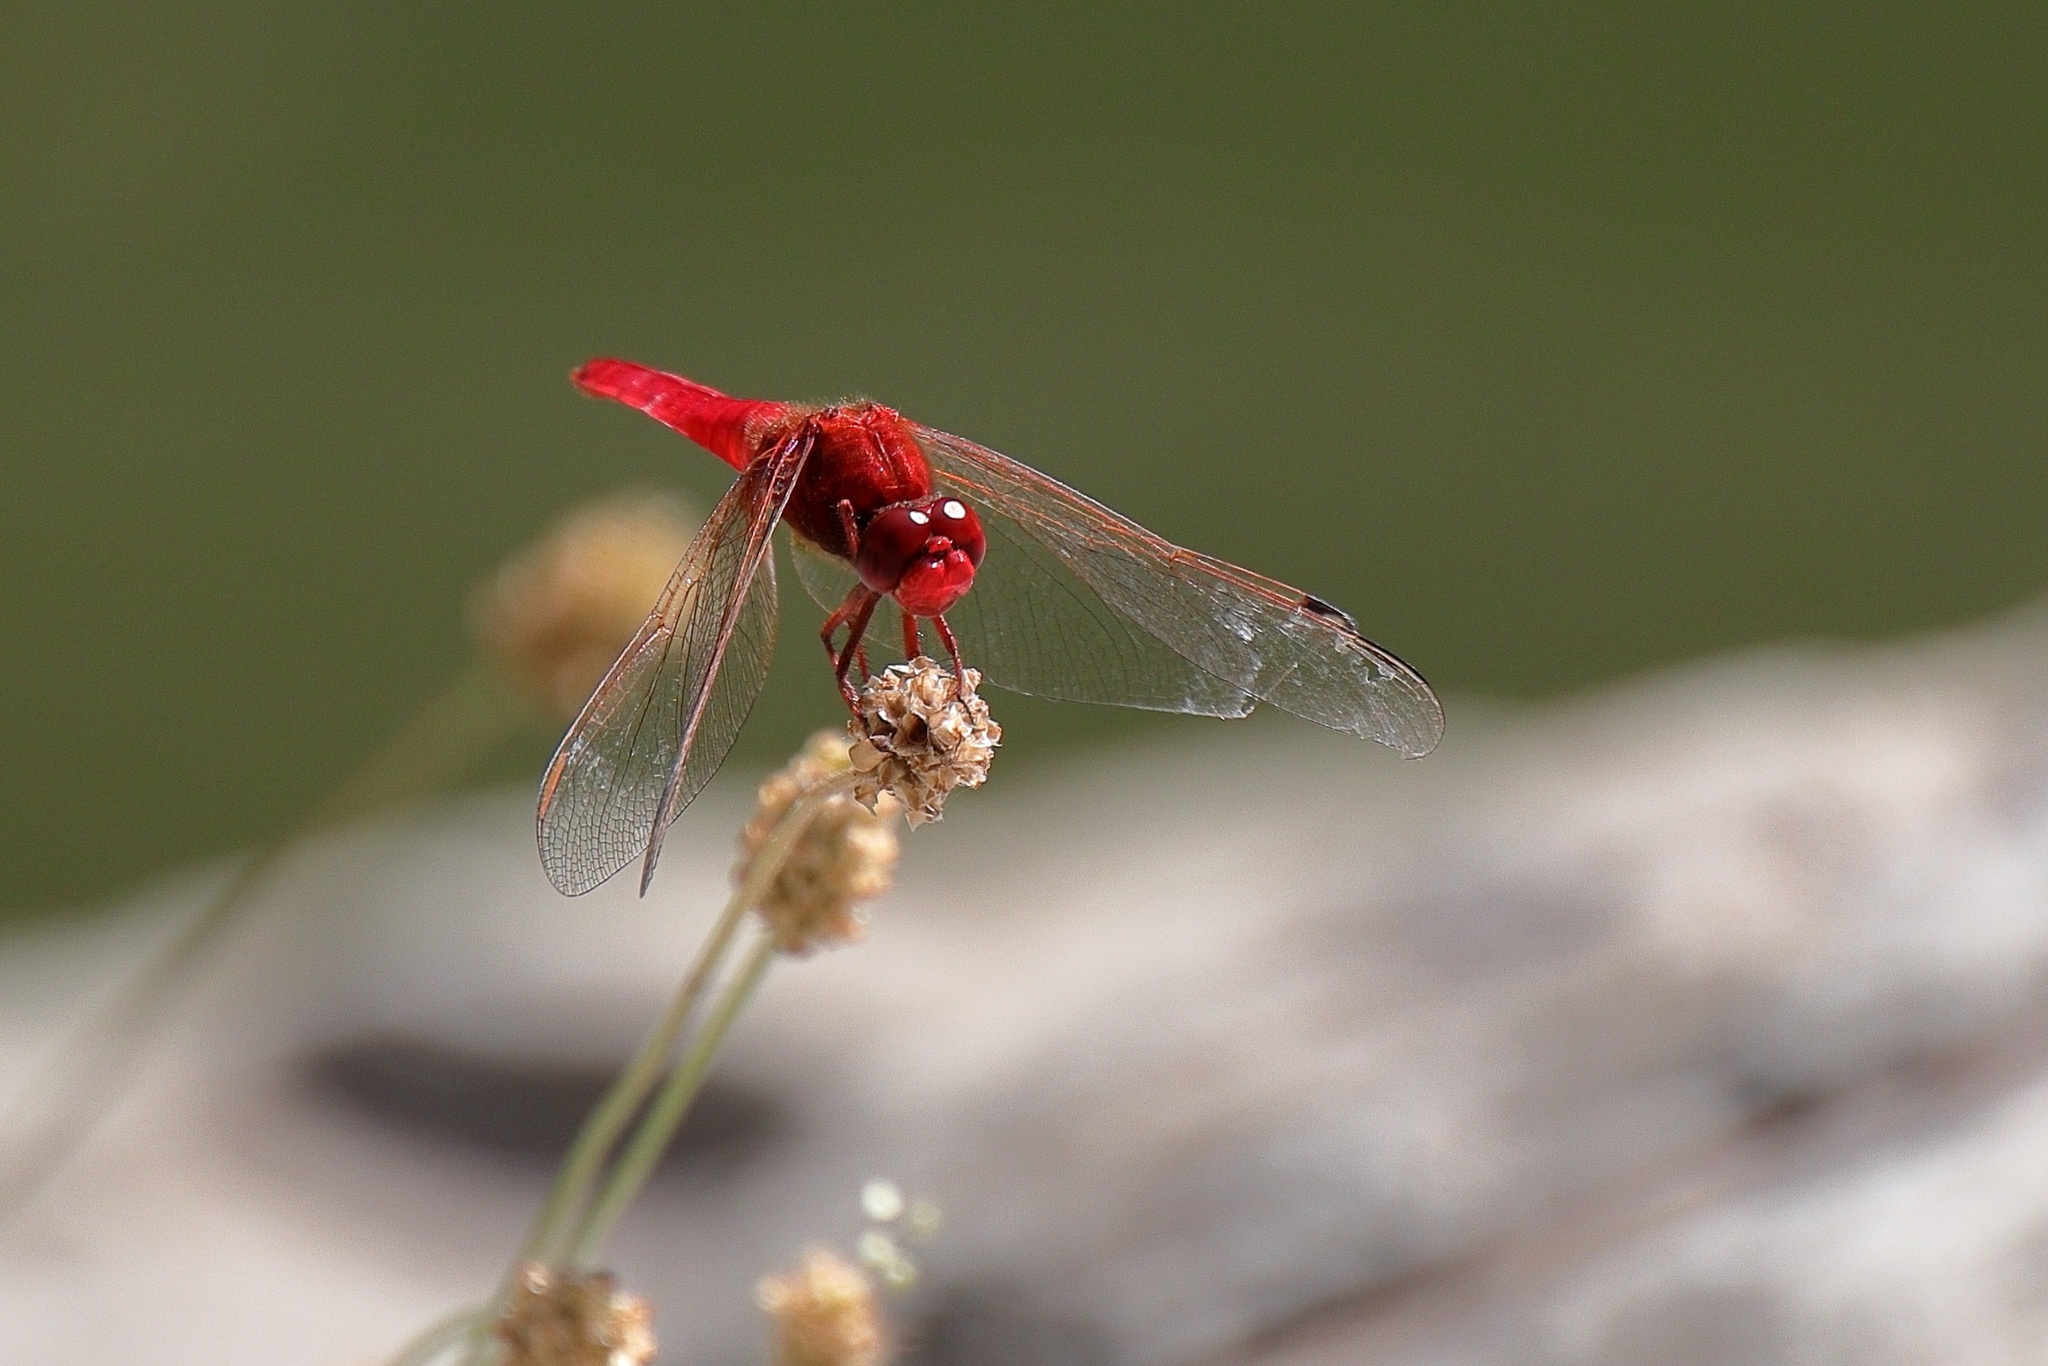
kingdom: Animalia
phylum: Arthropoda
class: Insecta
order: Odonata
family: Libellulidae
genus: Crocothemis
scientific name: Crocothemis erythraea
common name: Scarlet dragonfly
